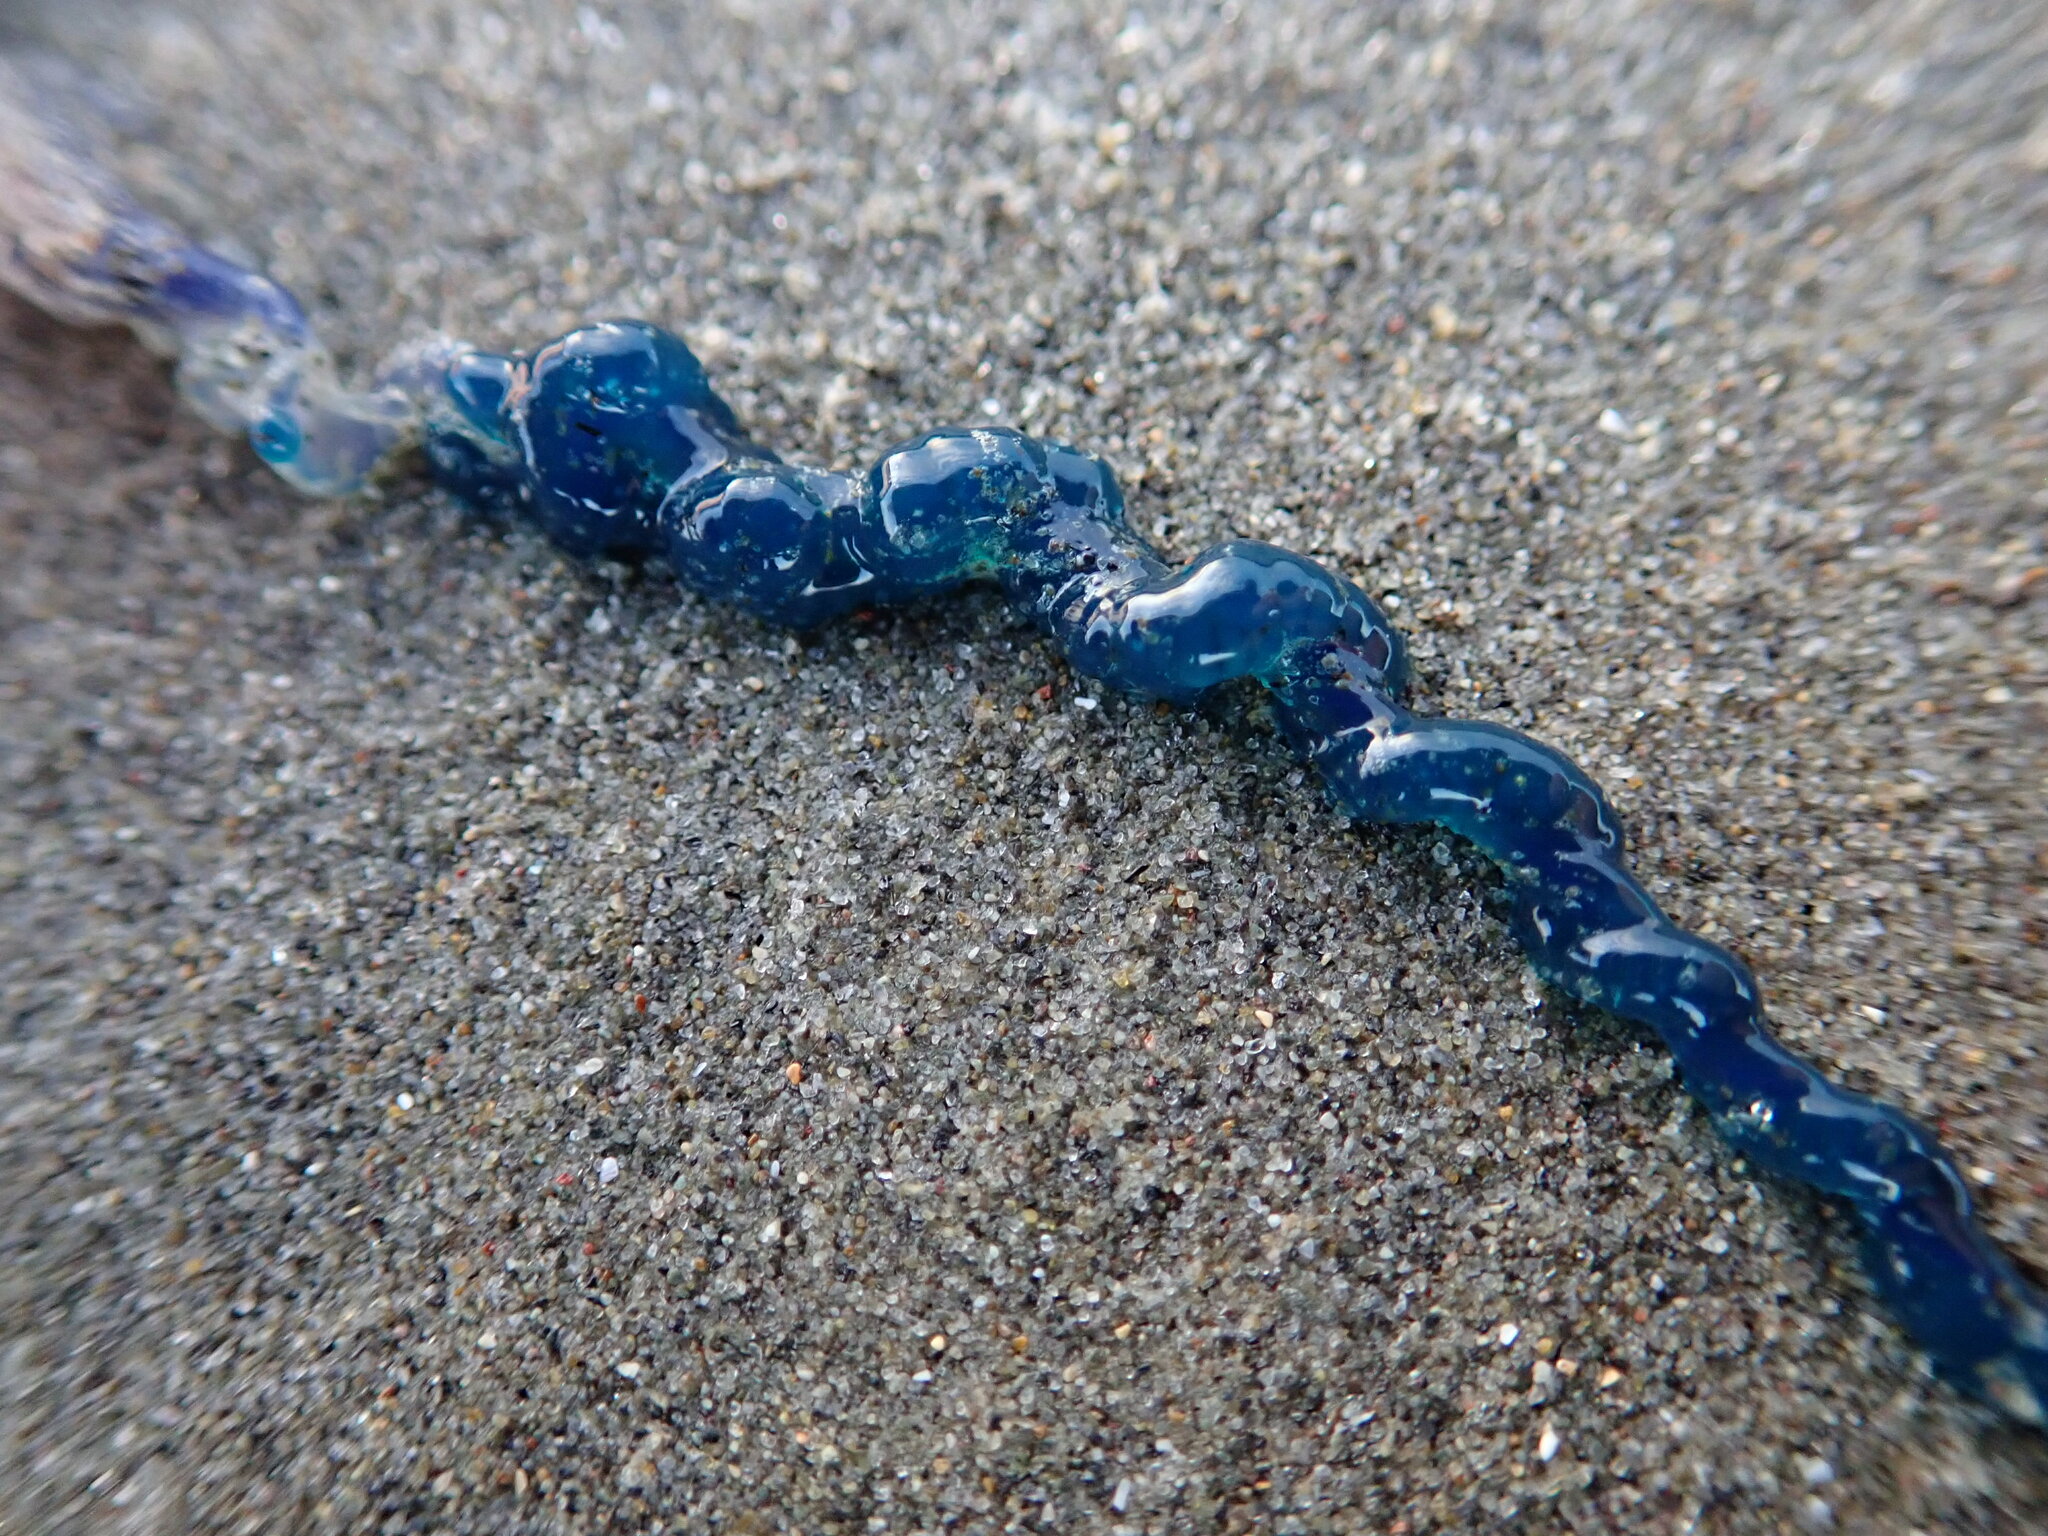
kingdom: Animalia
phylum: Cnidaria
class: Hydrozoa
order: Siphonophorae
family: Physaliidae
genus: Physalia
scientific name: Physalia physalis
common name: Portuguese man-of-war
